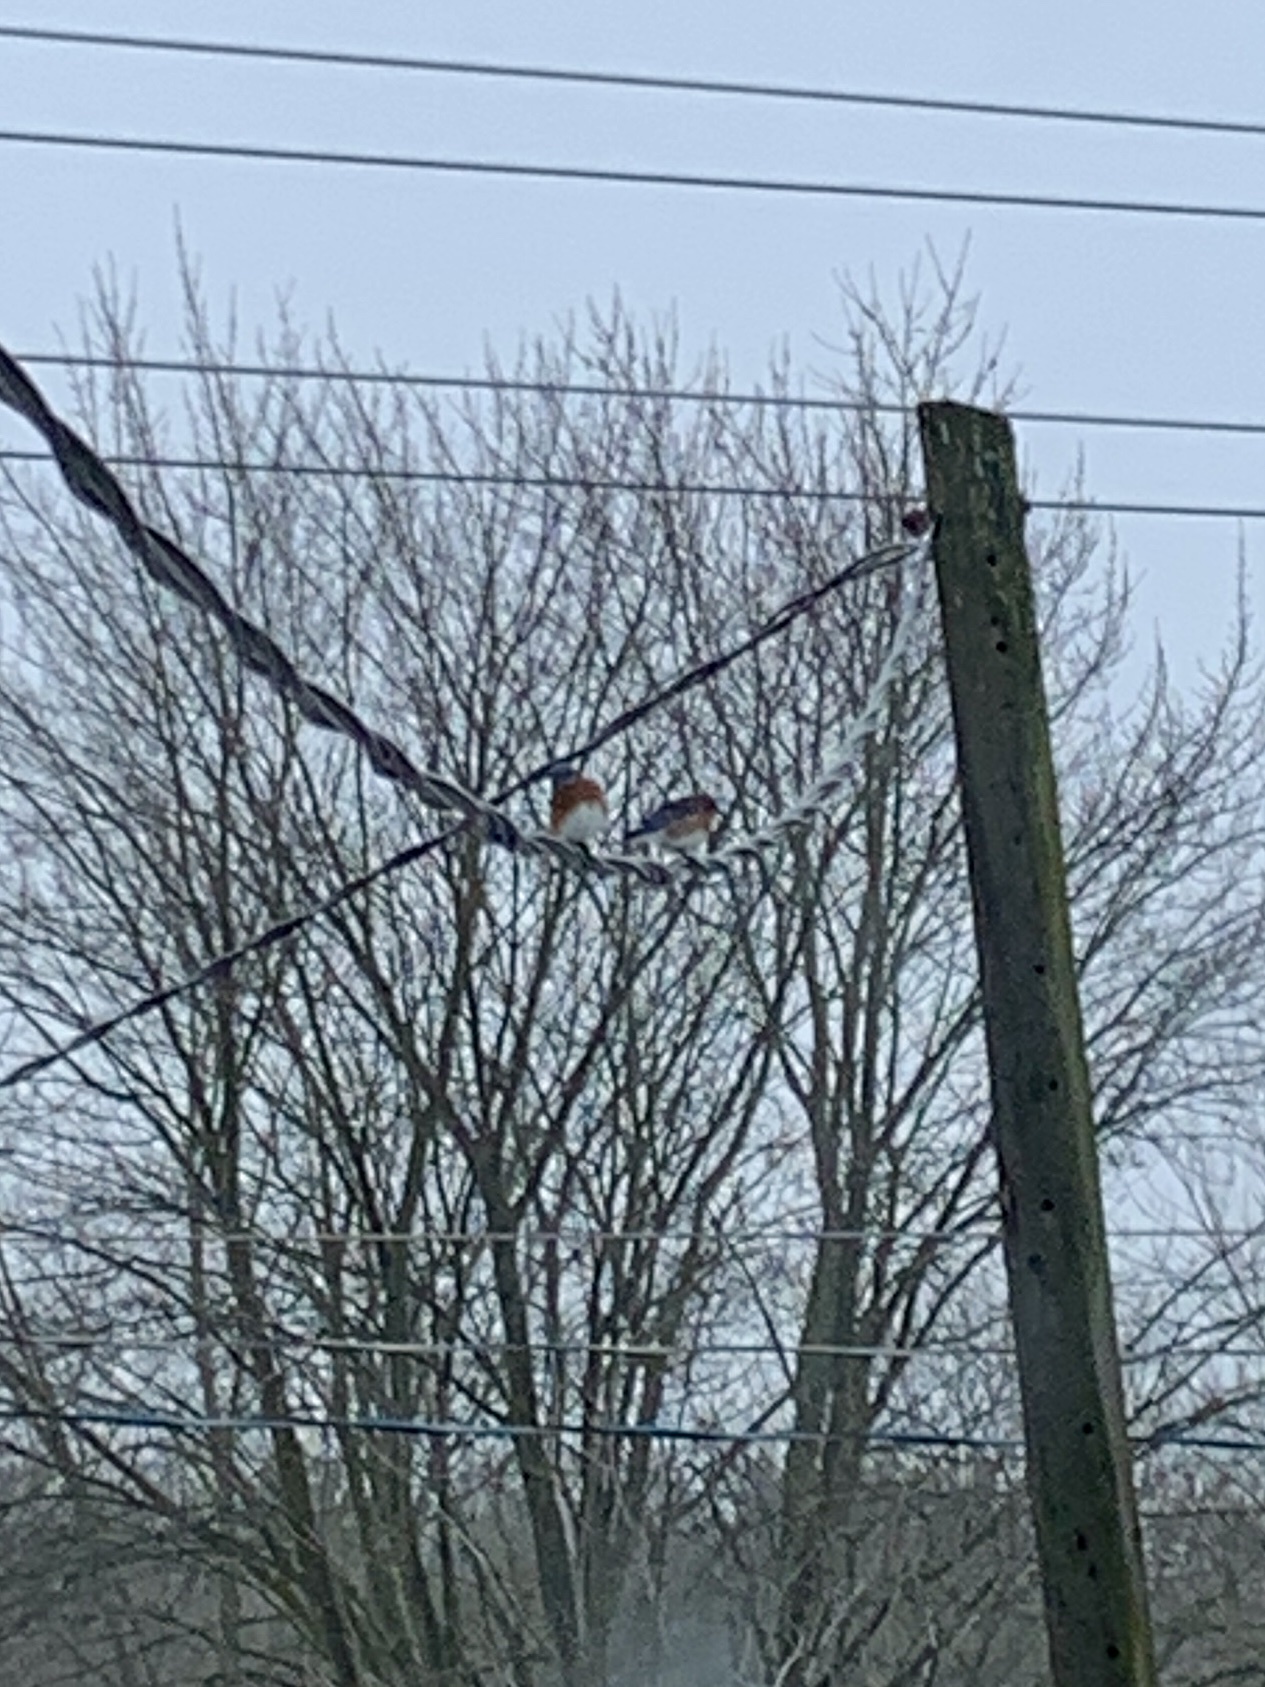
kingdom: Animalia
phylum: Chordata
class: Aves
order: Passeriformes
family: Turdidae
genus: Sialia
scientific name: Sialia sialis
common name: Eastern bluebird
